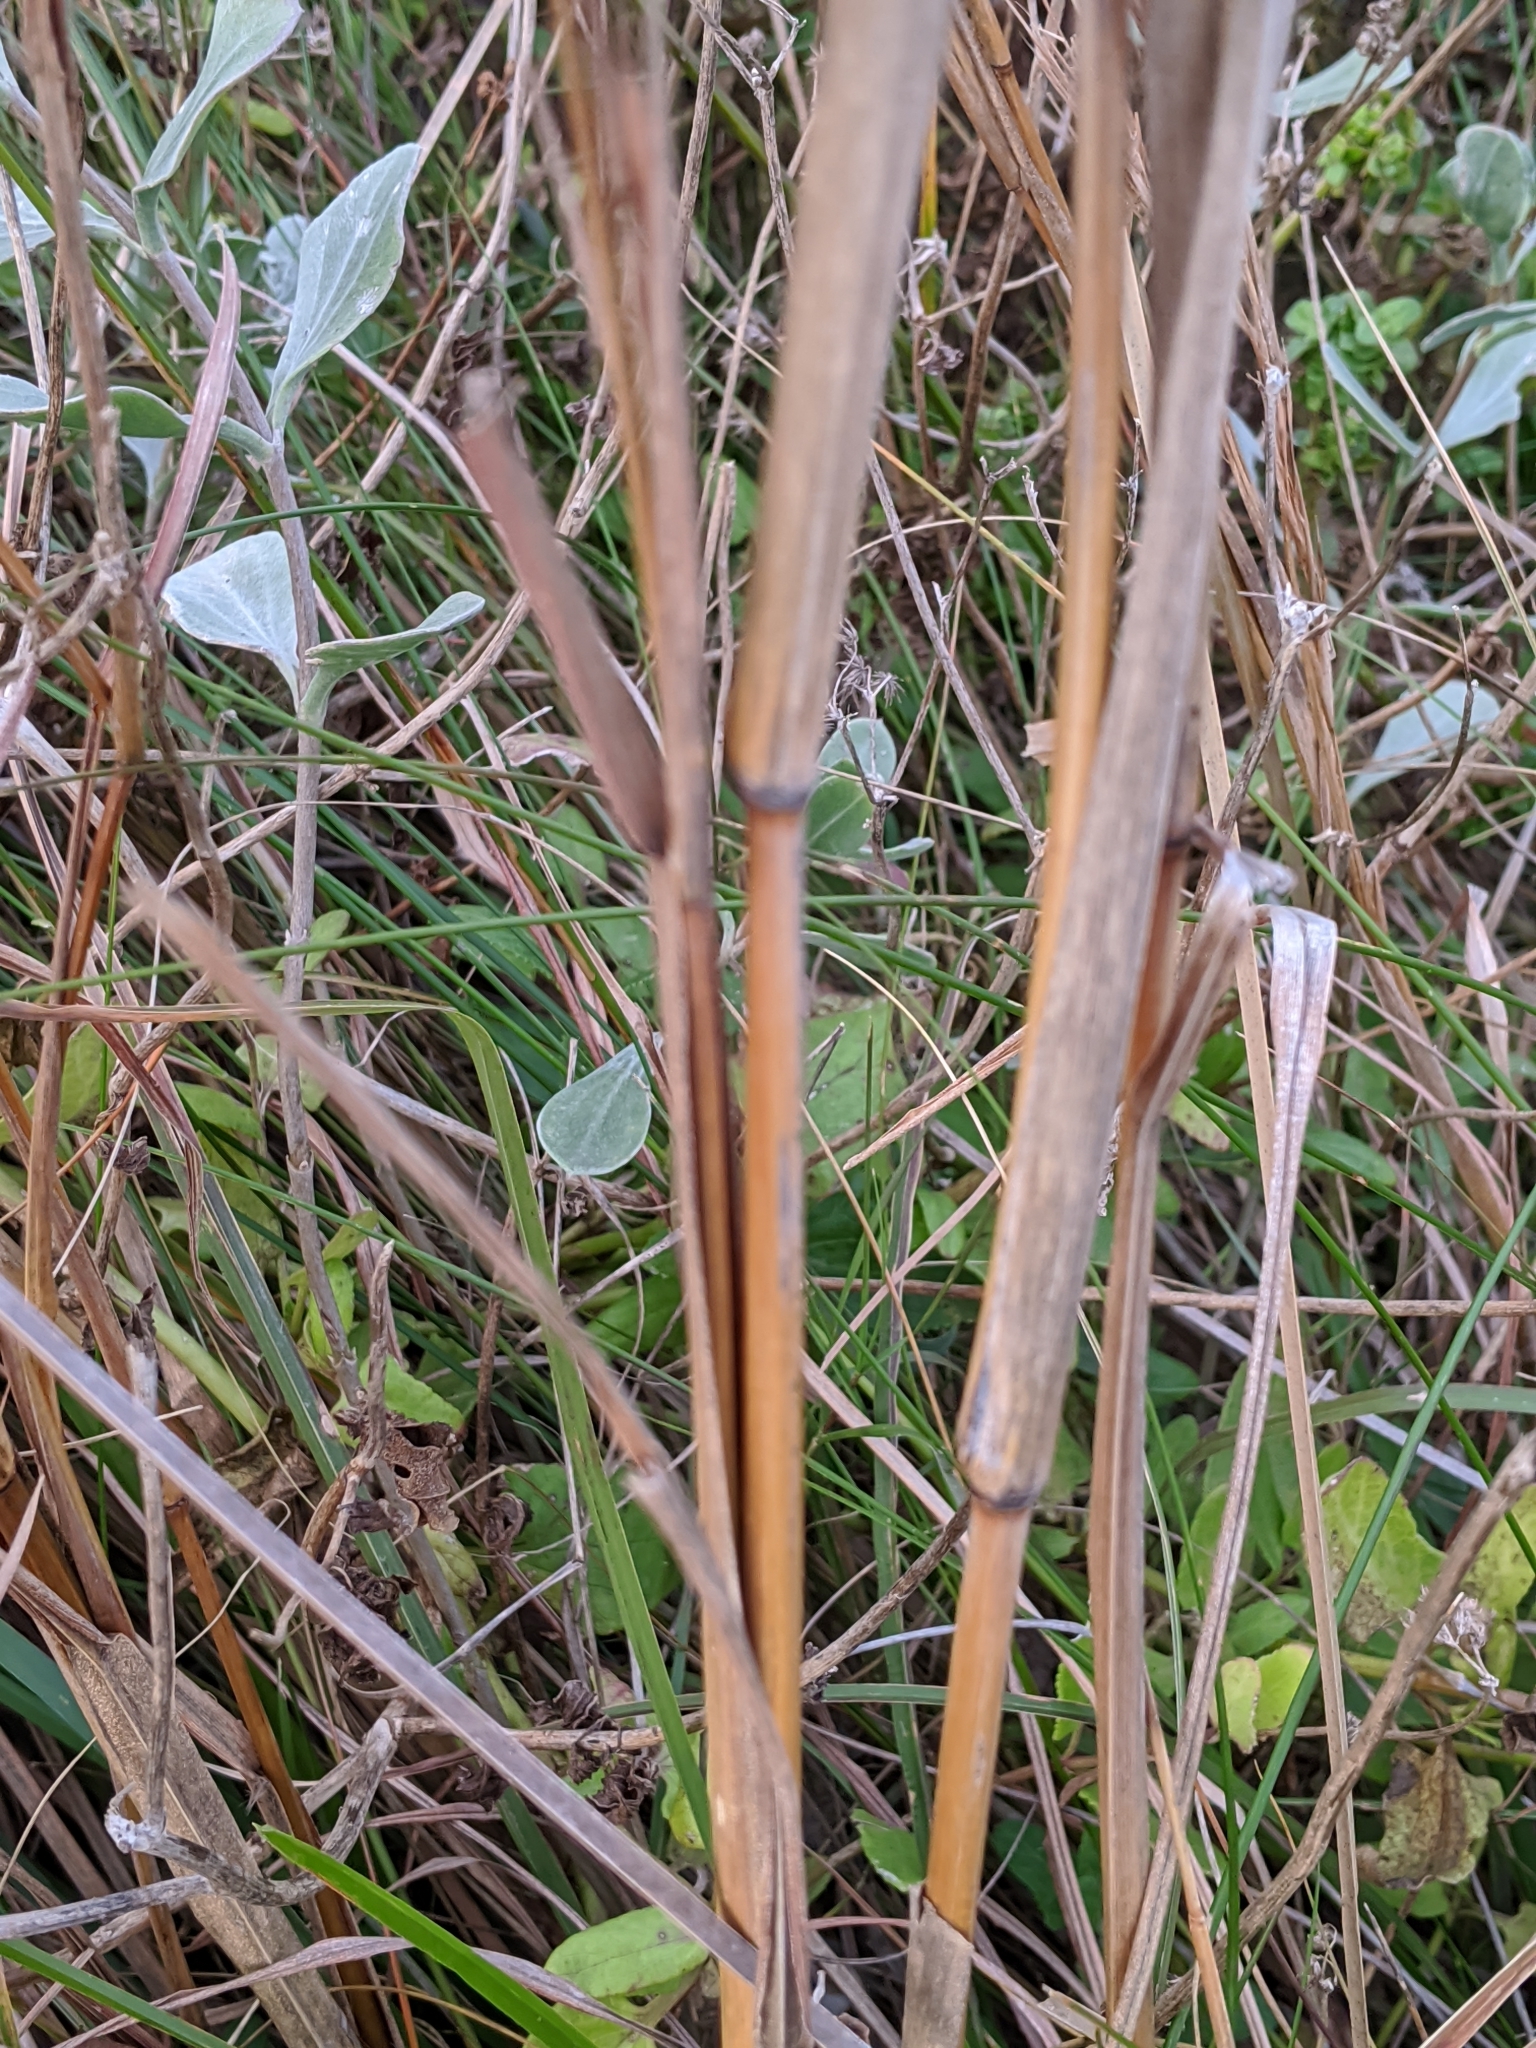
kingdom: Plantae
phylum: Tracheophyta
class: Liliopsida
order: Poales
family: Poaceae
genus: Andropogon
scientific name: Andropogon tenuispatheus
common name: Bushy bluestem
